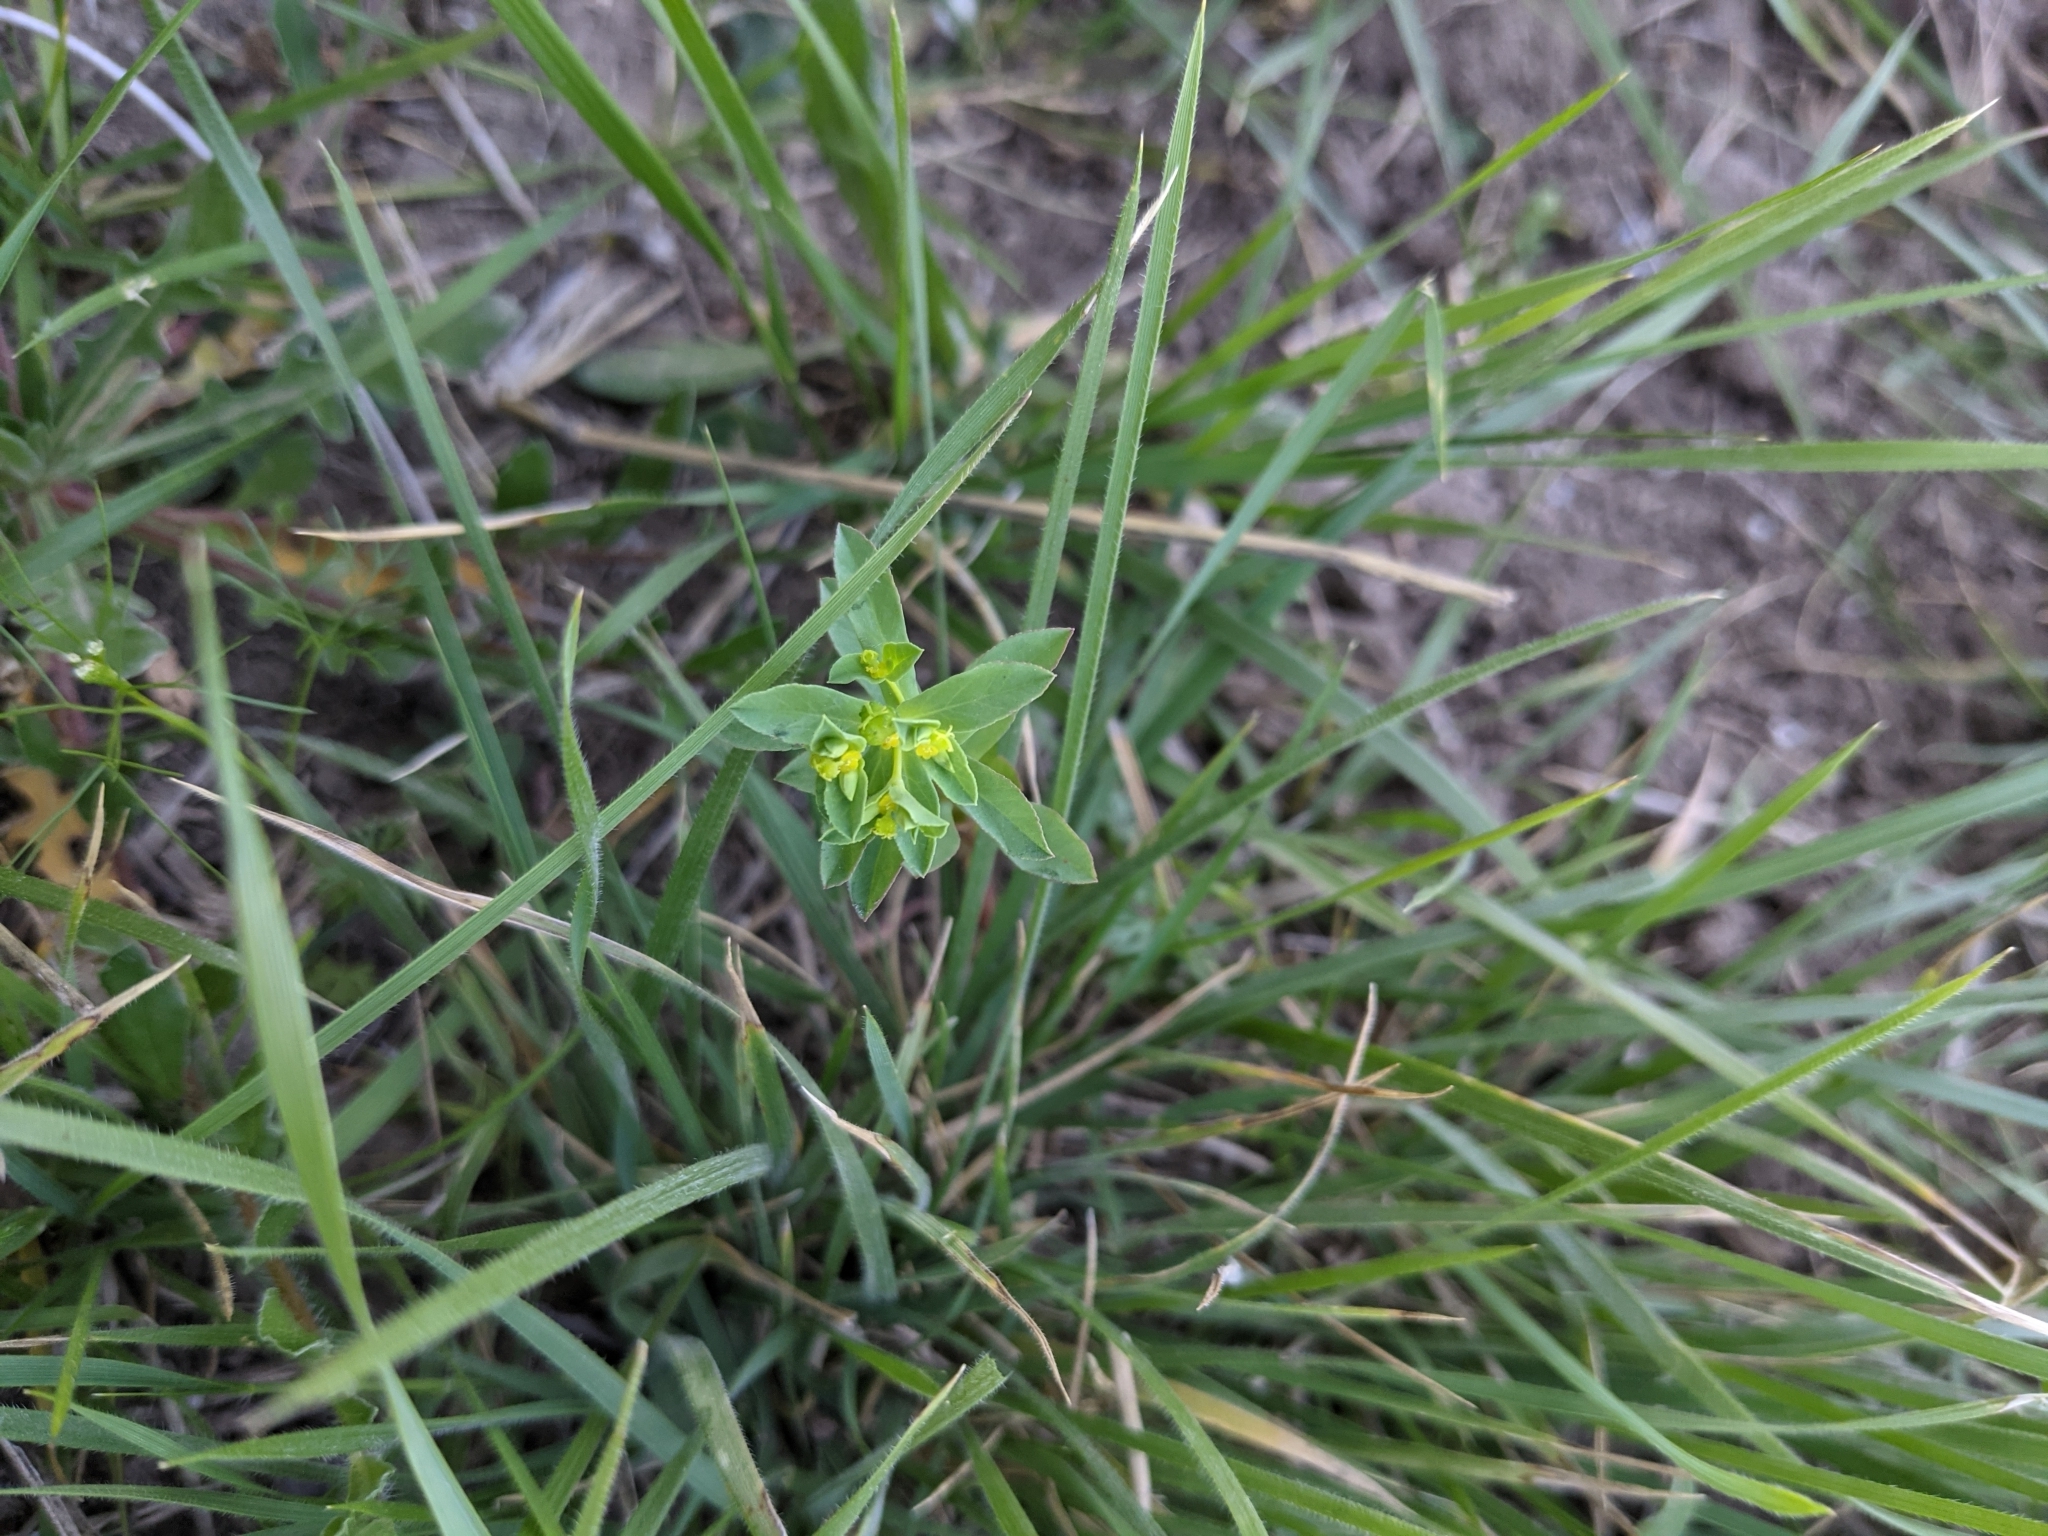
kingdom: Plantae
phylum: Tracheophyta
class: Magnoliopsida
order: Malpighiales
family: Euphorbiaceae
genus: Euphorbia
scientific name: Euphorbia spathulata
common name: Blunt spurge
